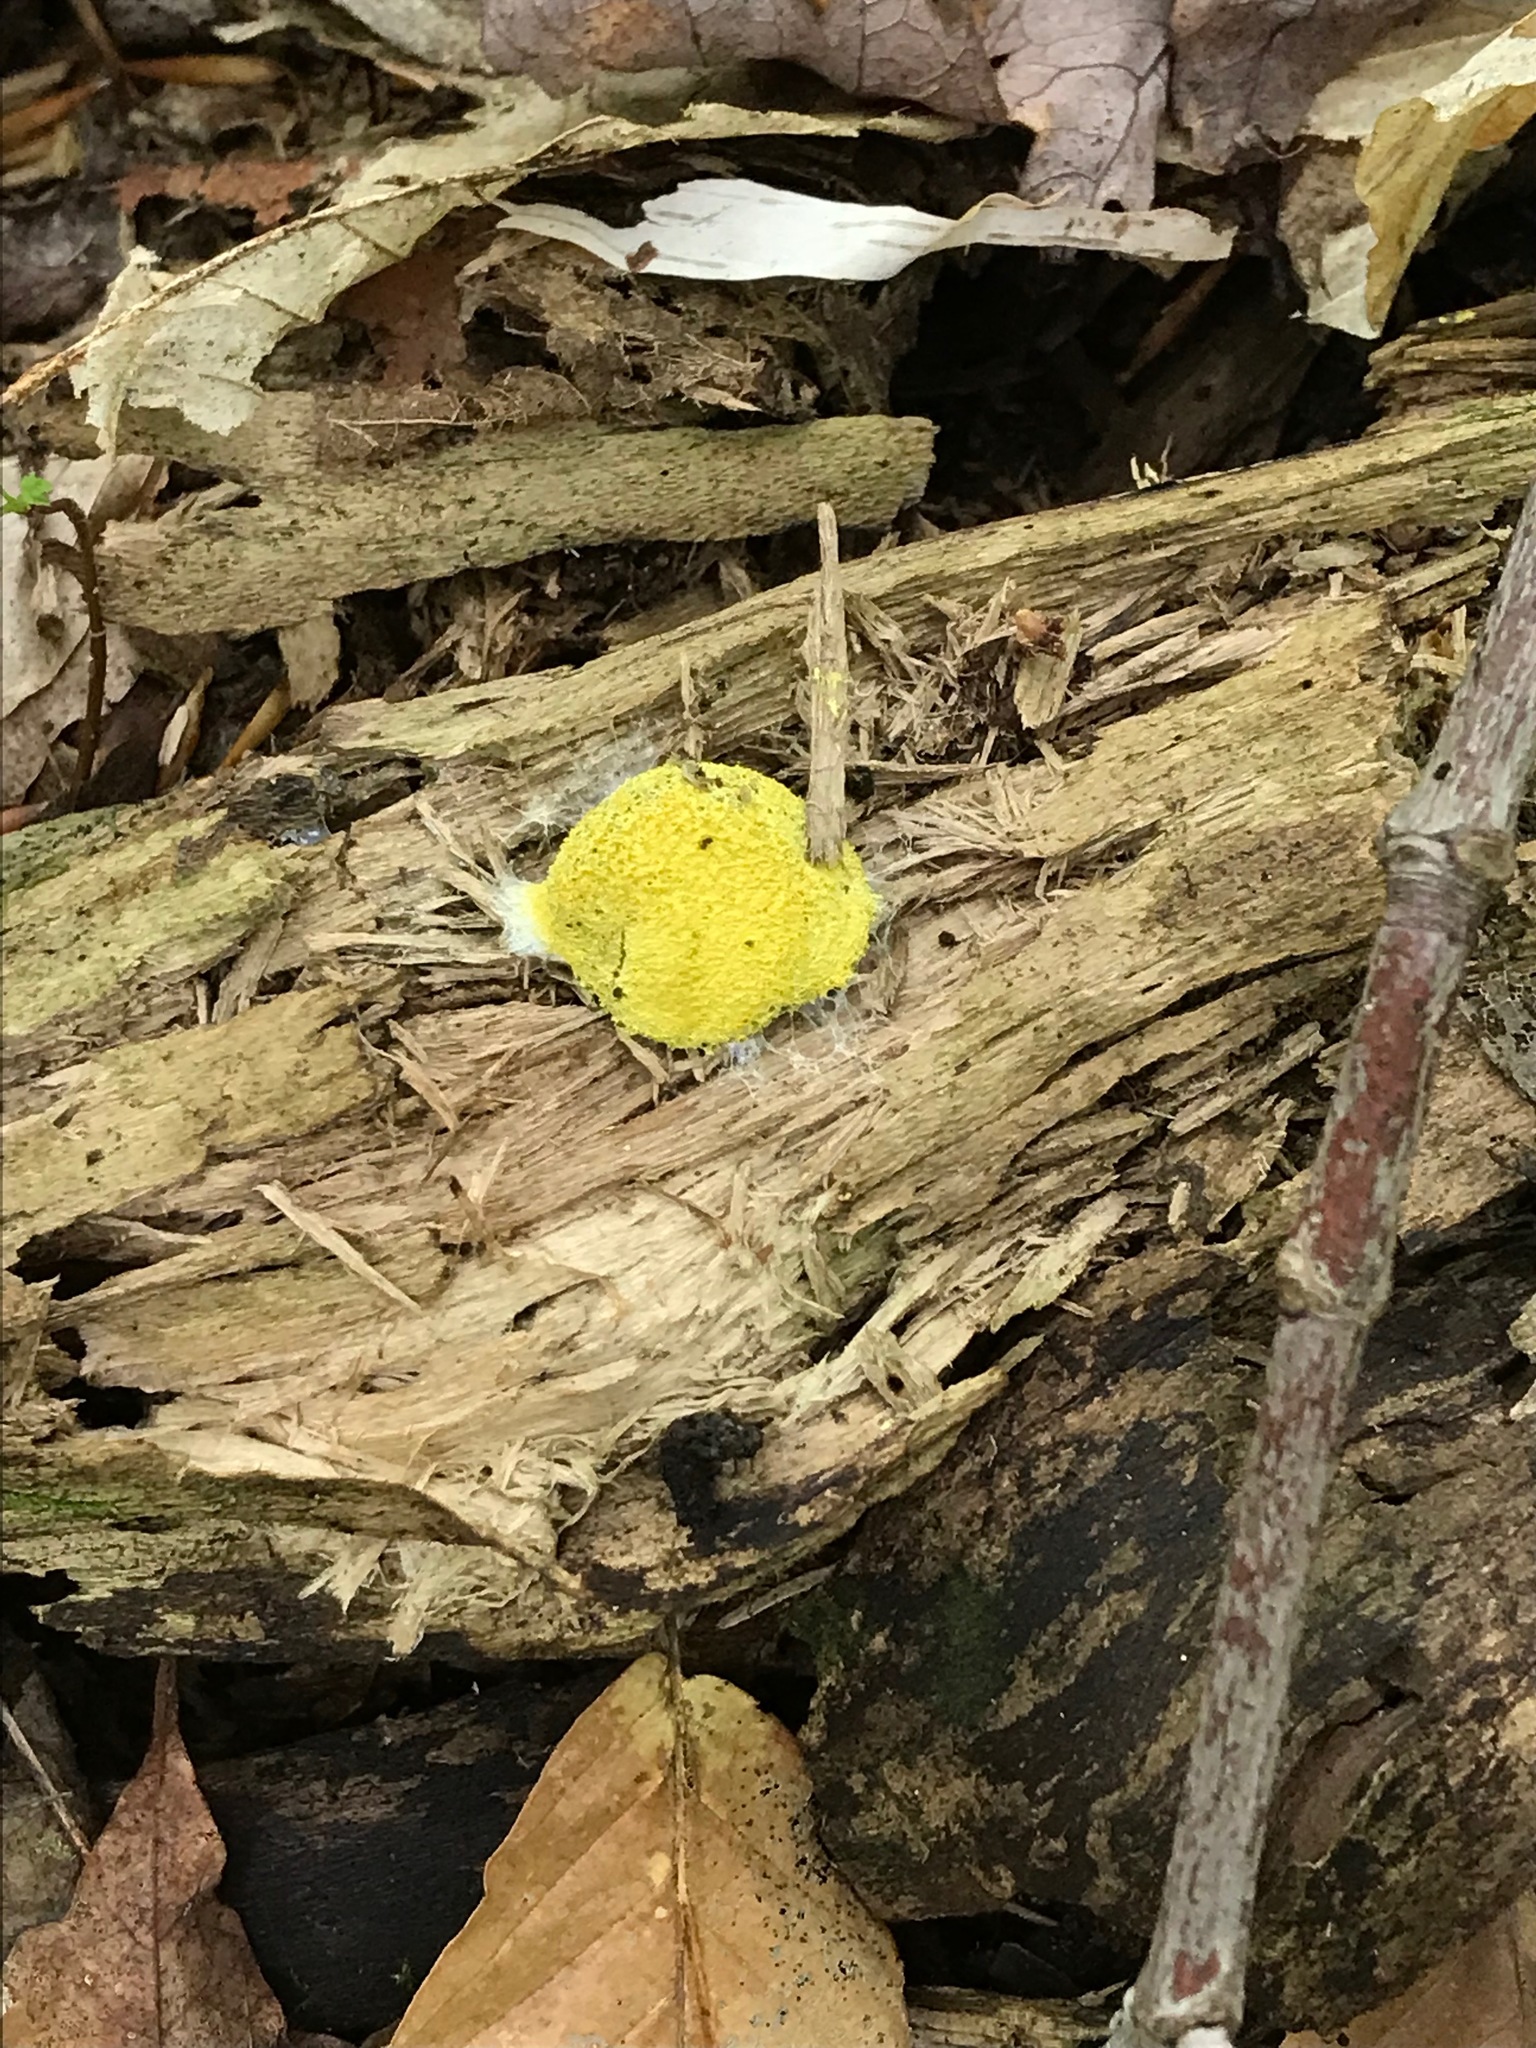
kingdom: Protozoa
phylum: Mycetozoa
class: Myxomycetes
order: Physarales
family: Physaraceae
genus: Fuligo
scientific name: Fuligo septica
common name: Dog vomit slime mold
